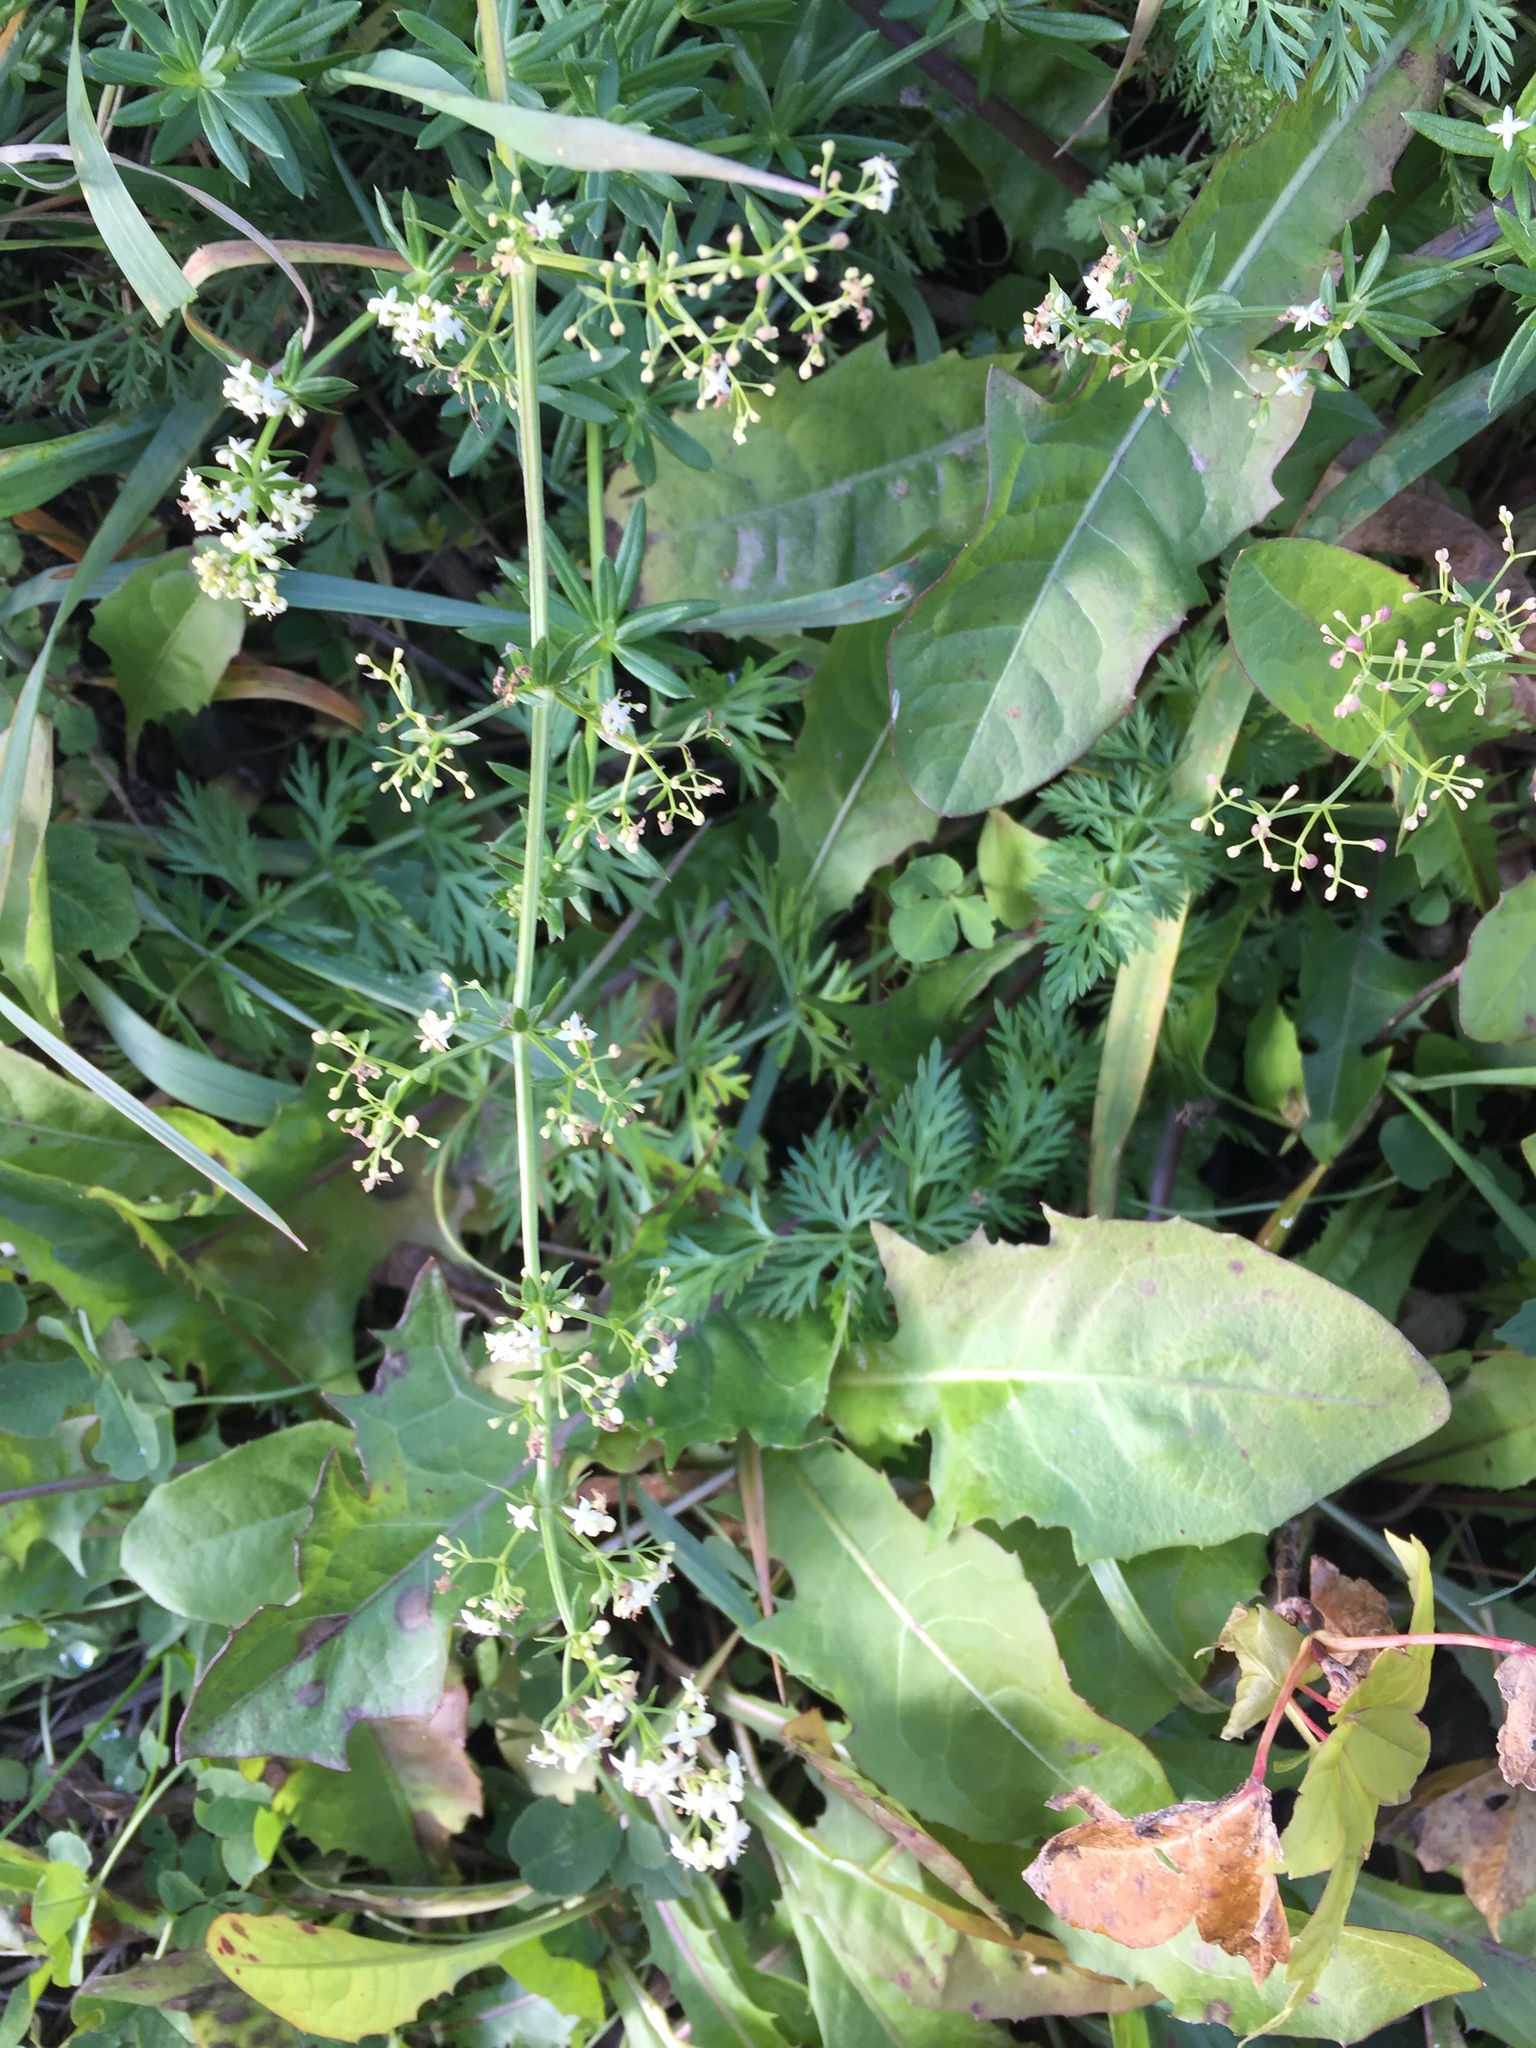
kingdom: Plantae
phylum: Tracheophyta
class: Magnoliopsida
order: Gentianales
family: Rubiaceae
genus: Galium
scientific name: Galium mollugo
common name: Hedge bedstraw
